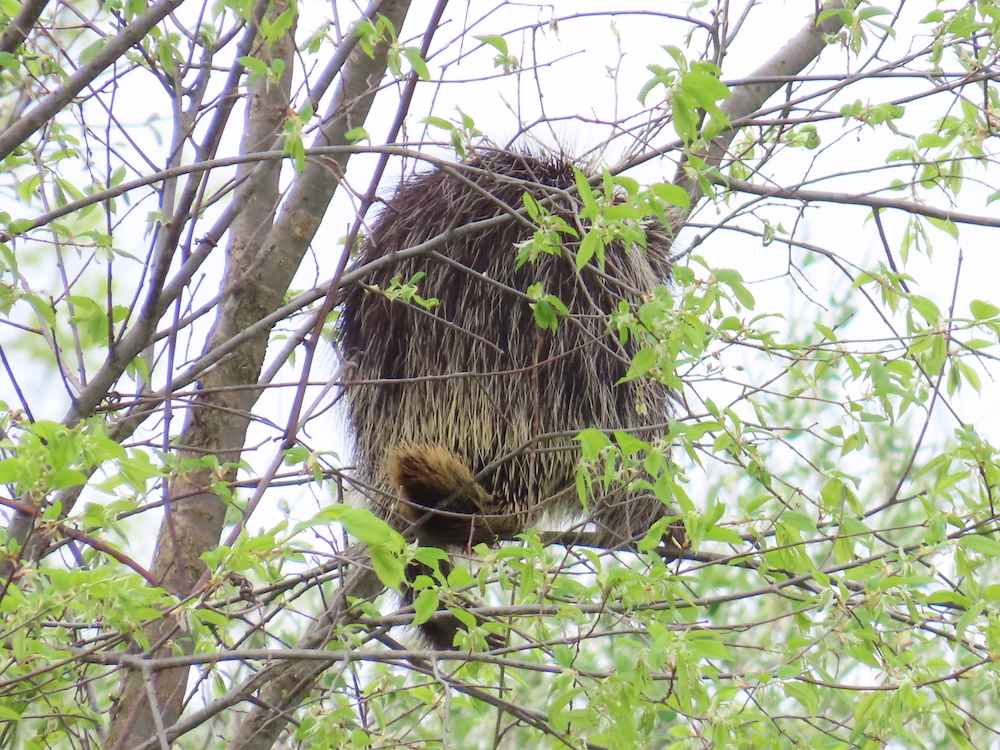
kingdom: Animalia
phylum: Chordata
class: Mammalia
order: Rodentia
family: Erethizontidae
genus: Erethizon
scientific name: Erethizon dorsatus
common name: North american porcupine
